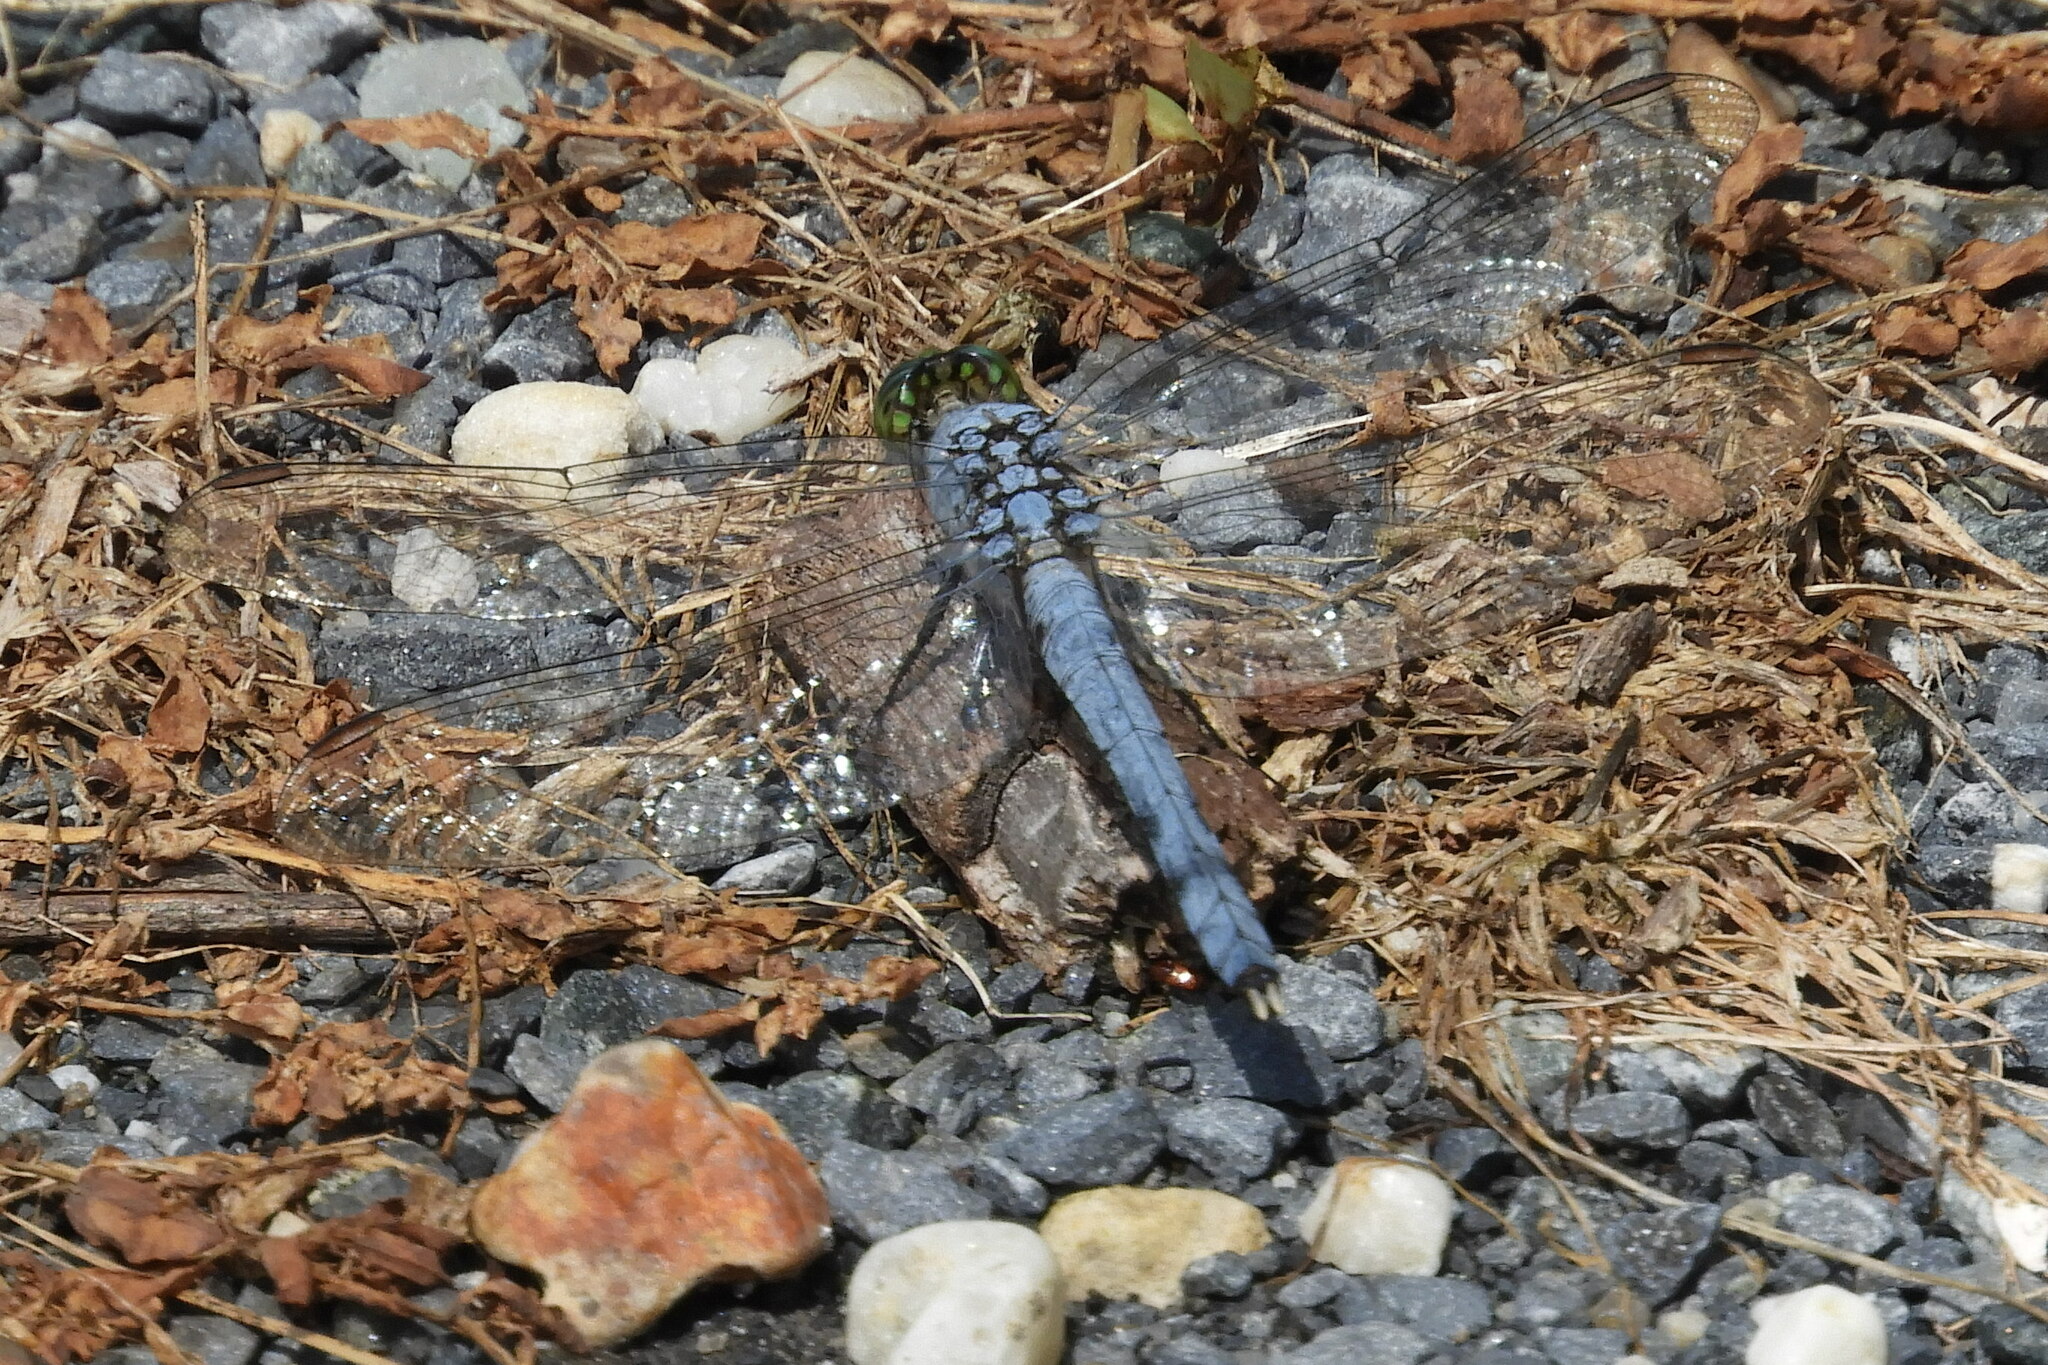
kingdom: Animalia
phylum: Arthropoda
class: Insecta
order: Odonata
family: Libellulidae
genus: Erythemis
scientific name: Erythemis simplicicollis
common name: Eastern pondhawk
